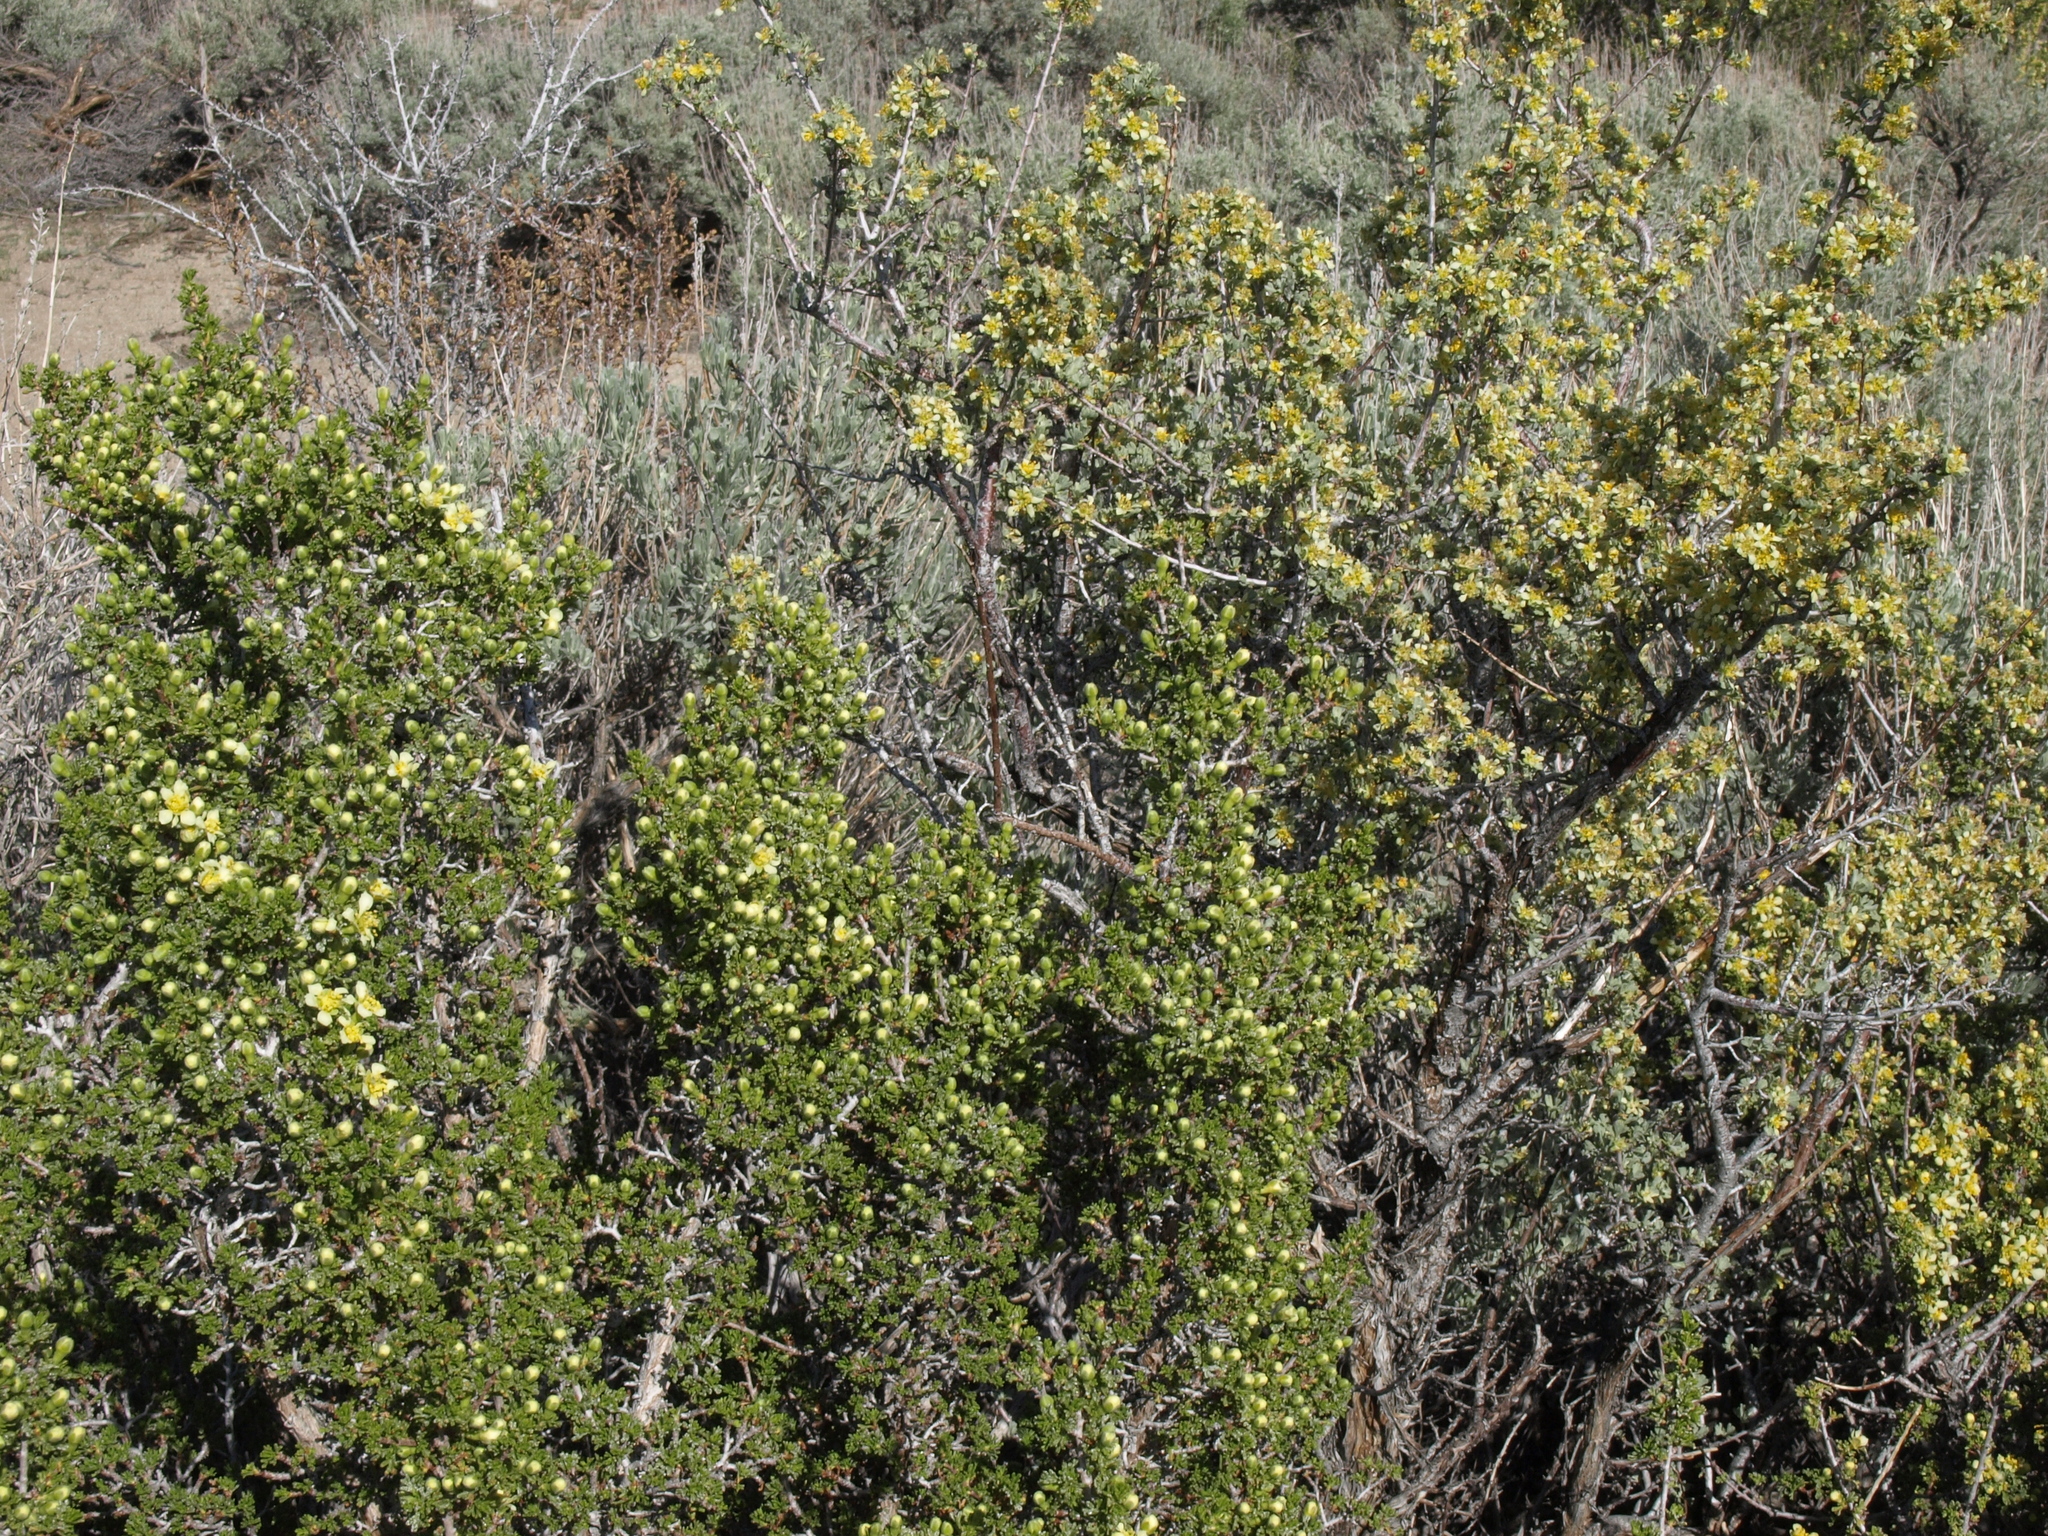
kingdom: Plantae
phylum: Tracheophyta
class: Magnoliopsida
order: Rosales
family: Rosaceae
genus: Purshia
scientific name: Purshia glandulosa
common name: Desert bitterbrush
